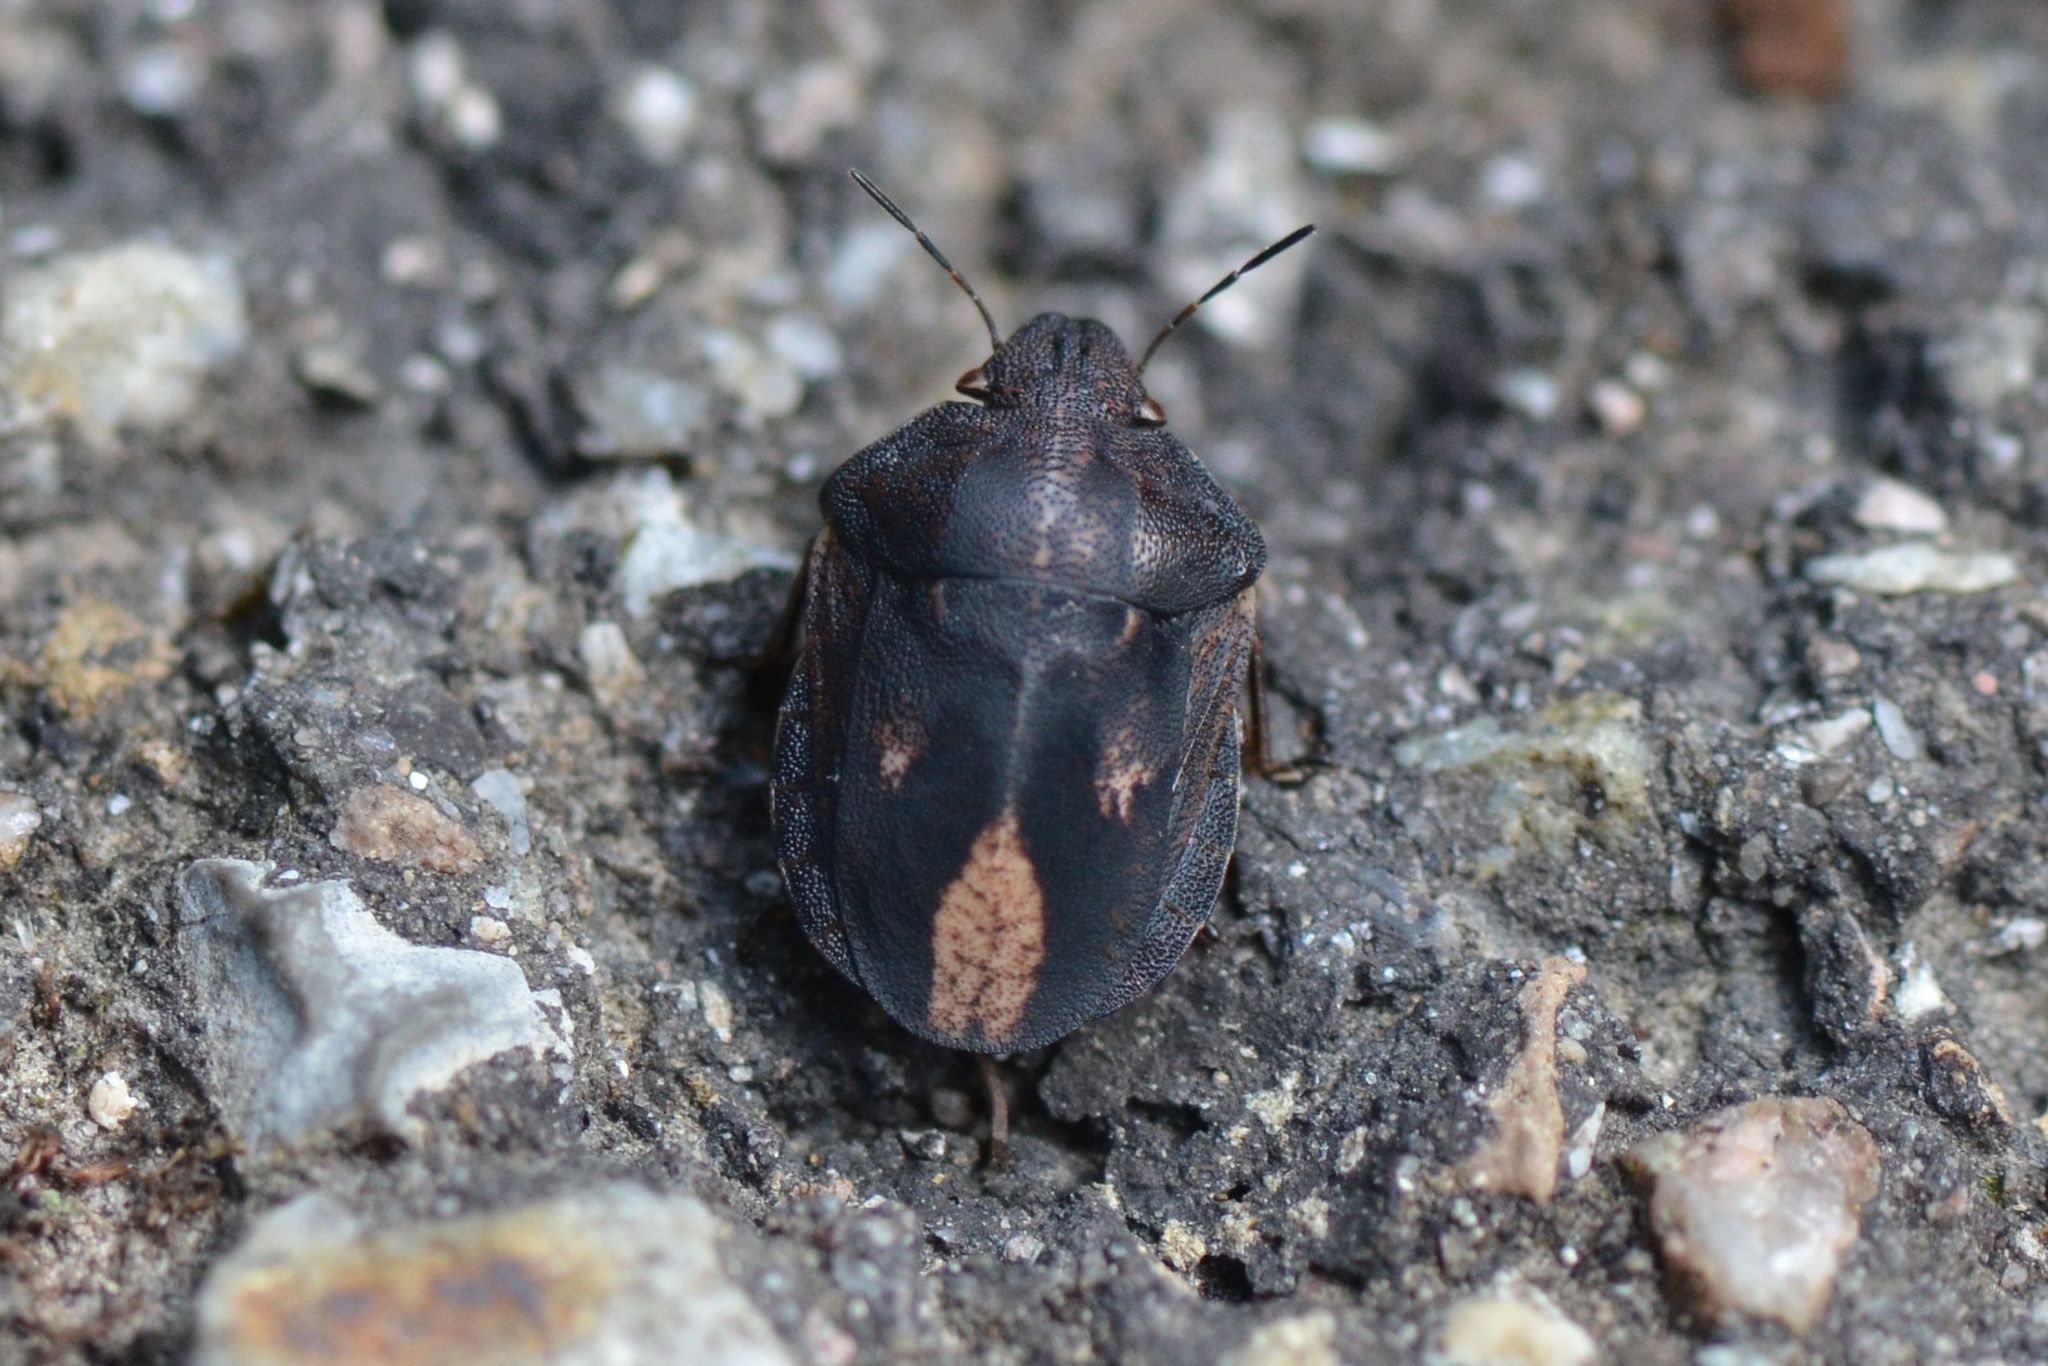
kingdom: Animalia
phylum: Arthropoda
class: Insecta
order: Hemiptera
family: Scutelleridae
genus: Eurygaster
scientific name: Eurygaster testudinaria
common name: Tortoise bug
